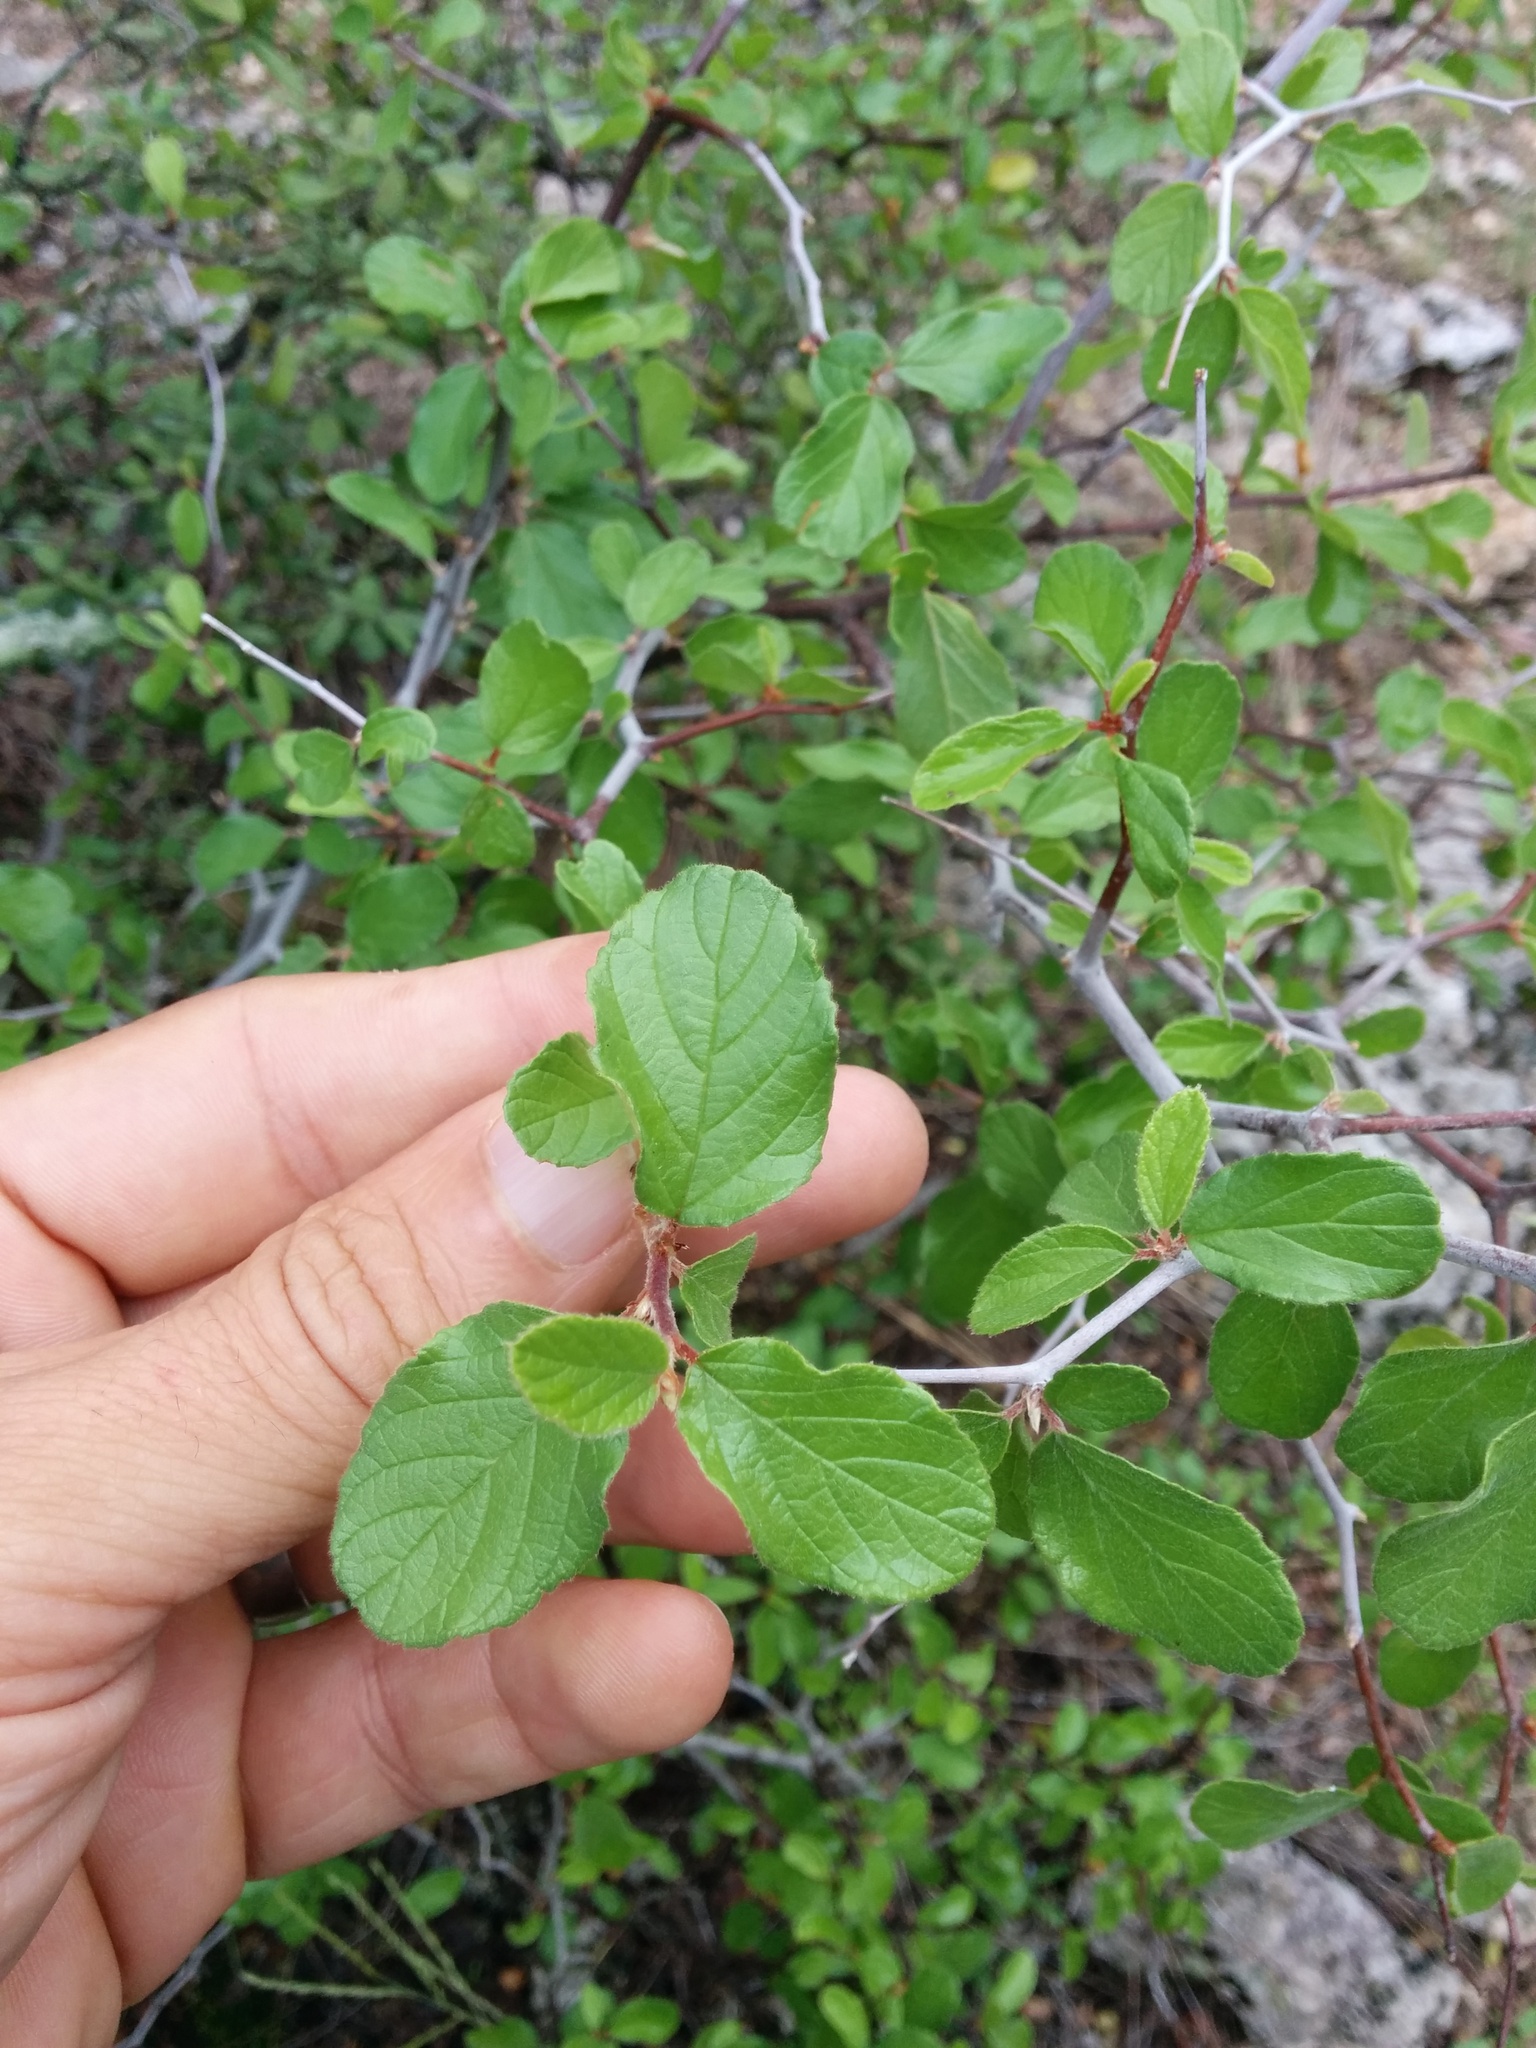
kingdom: Plantae
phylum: Tracheophyta
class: Magnoliopsida
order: Rosales
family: Rhamnaceae
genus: Colubrina
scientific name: Colubrina texensis
